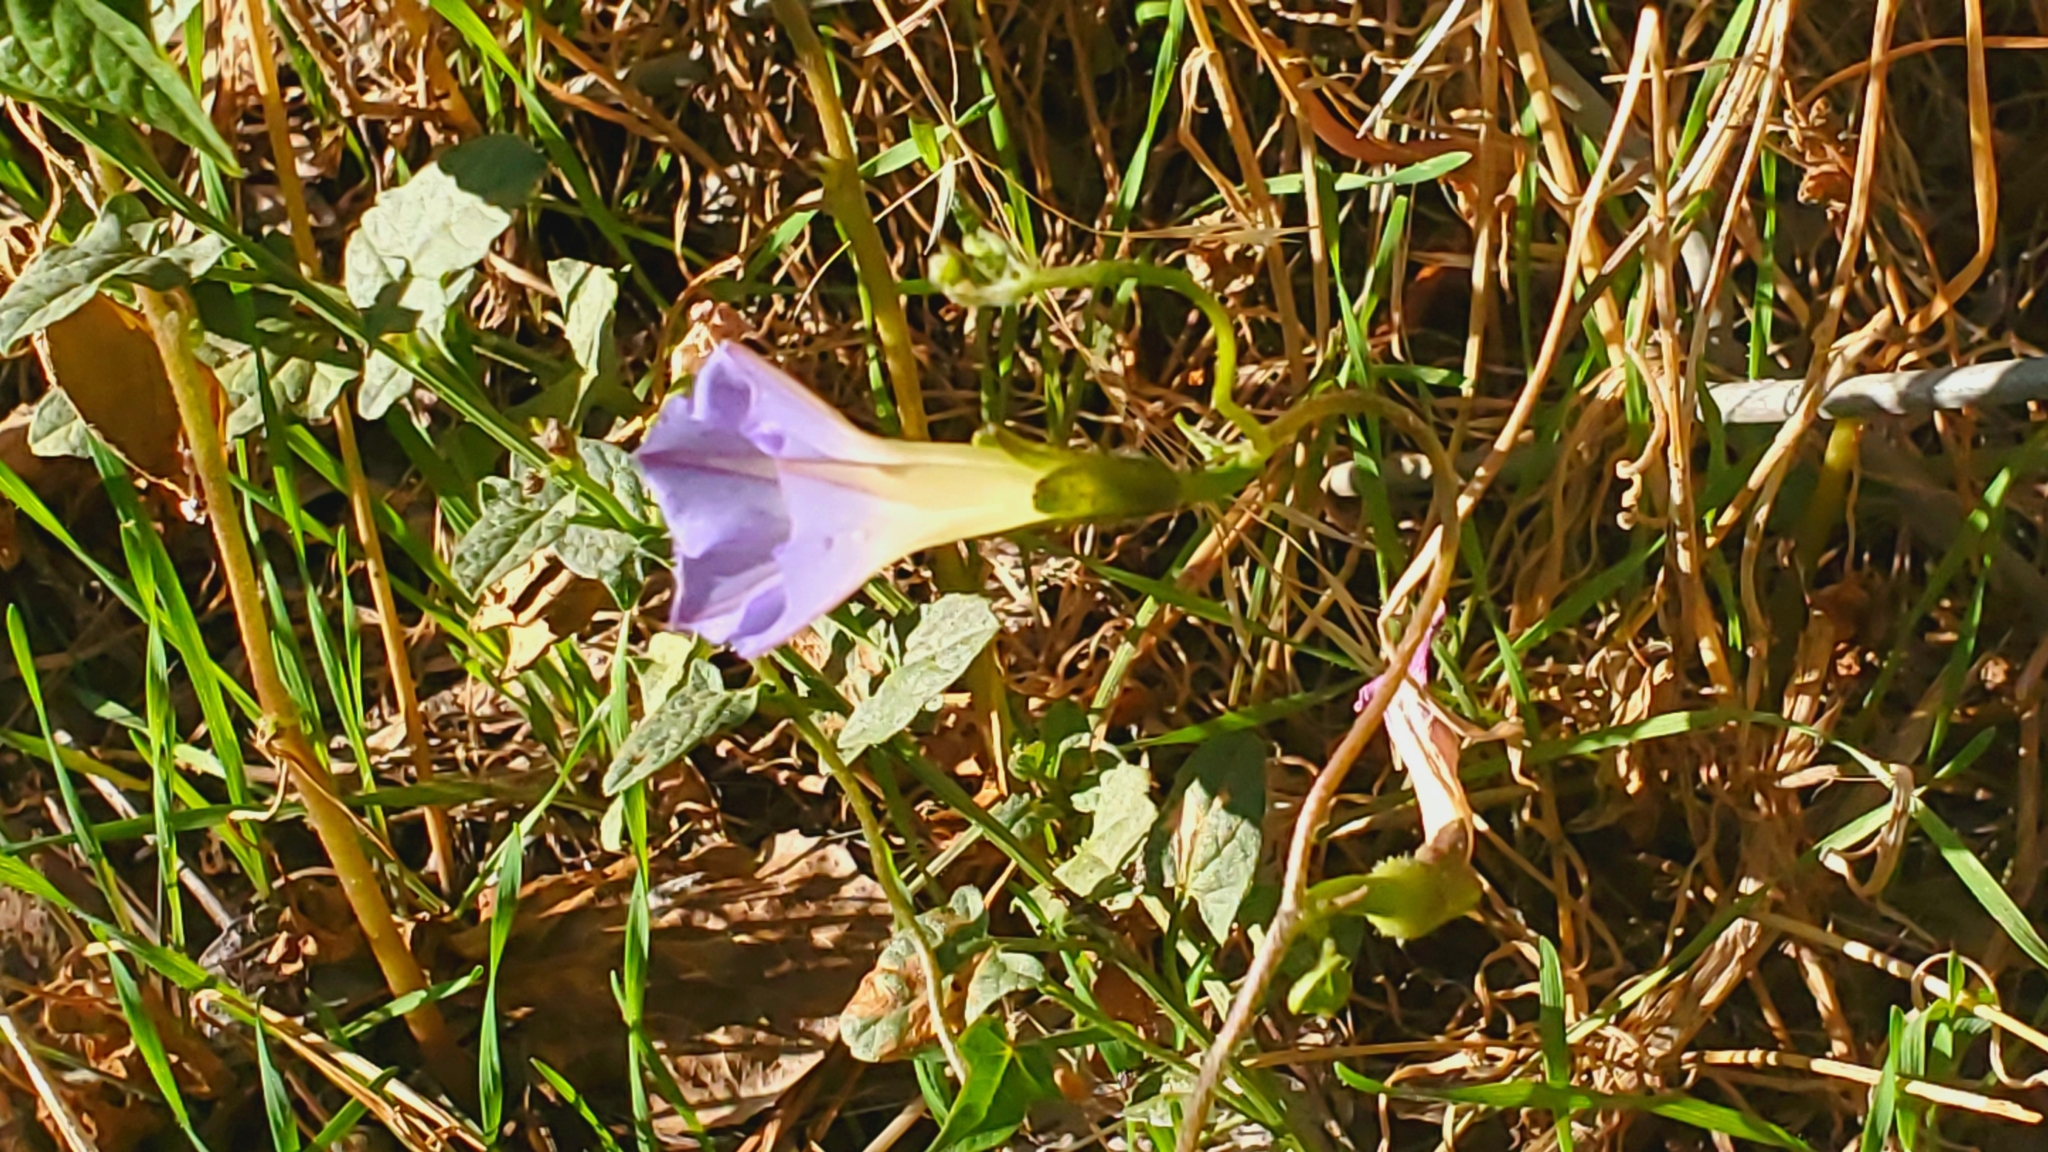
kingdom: Plantae
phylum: Tracheophyta
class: Magnoliopsida
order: Solanales
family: Convolvulaceae
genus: Ipomoea
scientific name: Ipomoea purpurea
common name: Common morning-glory
